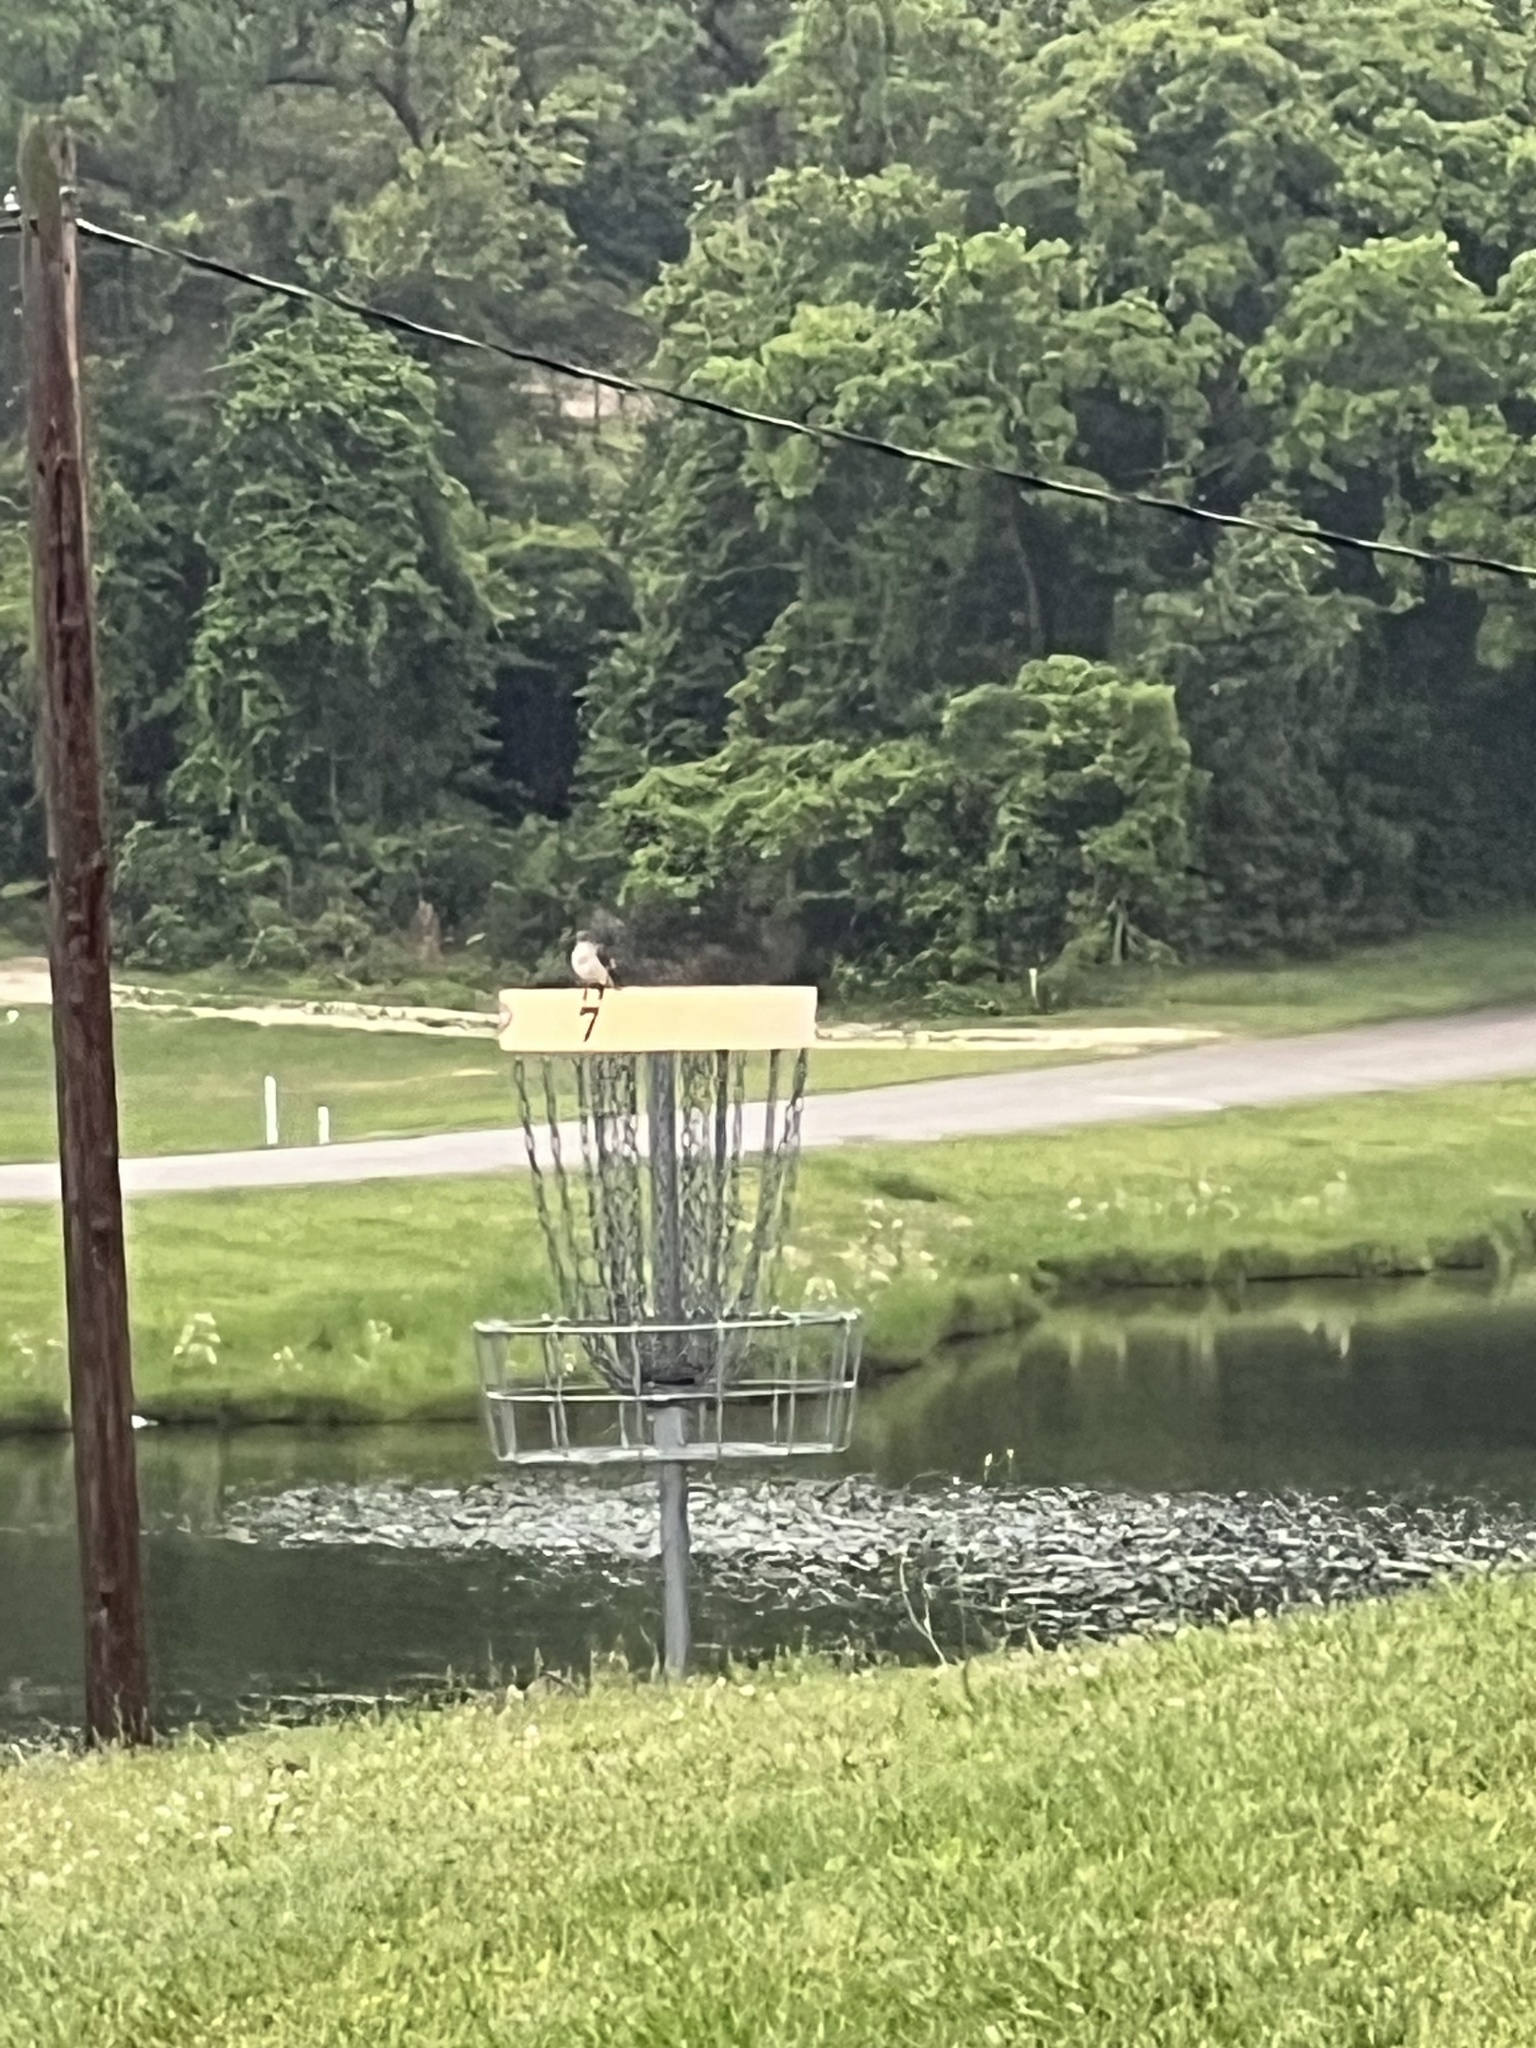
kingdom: Animalia
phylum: Chordata
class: Aves
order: Passeriformes
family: Mimidae
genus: Mimus
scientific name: Mimus polyglottos
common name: Northern mockingbird
